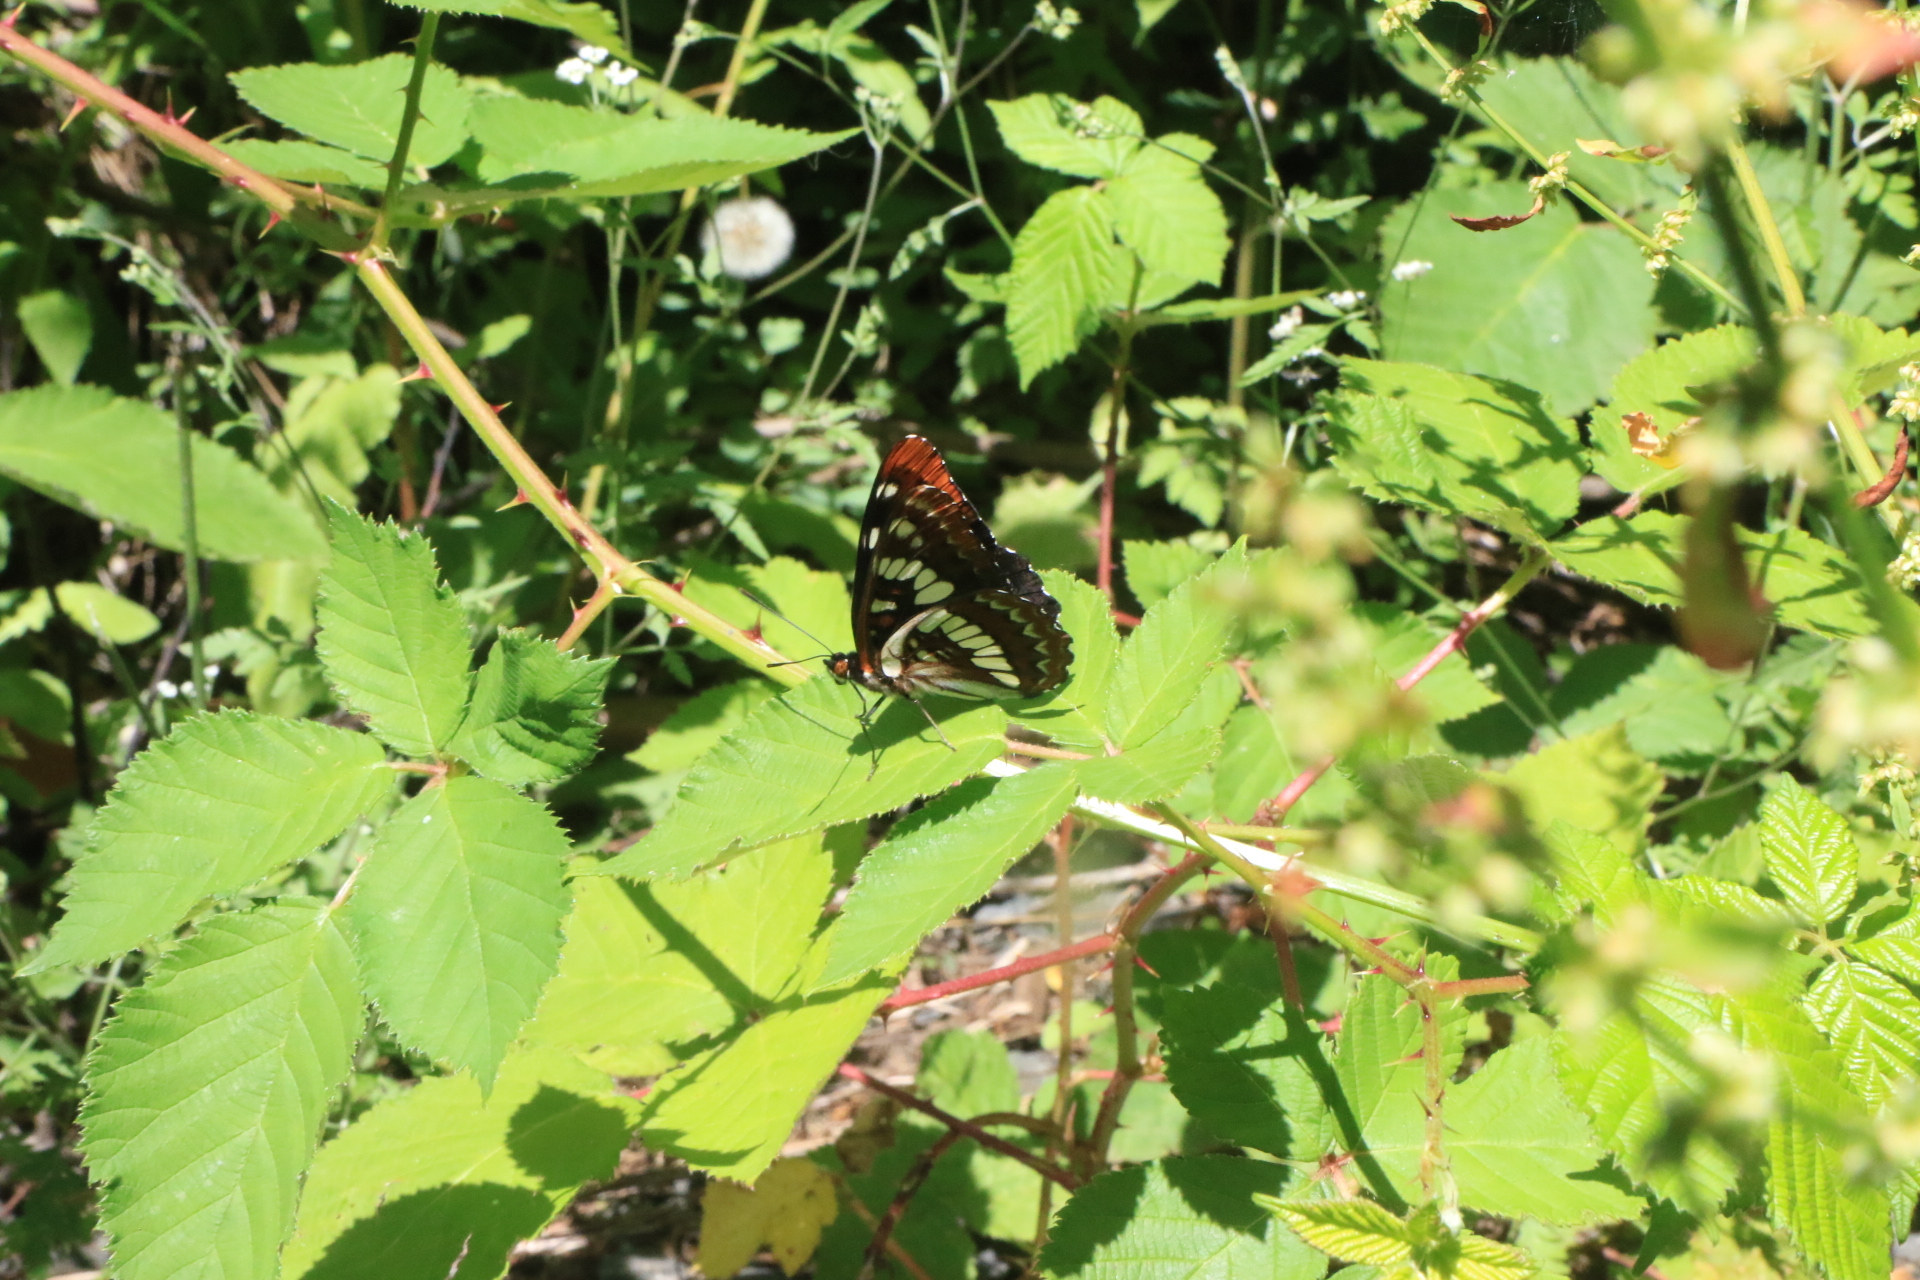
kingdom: Animalia
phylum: Arthropoda
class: Insecta
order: Lepidoptera
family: Nymphalidae
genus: Limenitis
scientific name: Limenitis lorquini
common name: Lorquin's admiral
